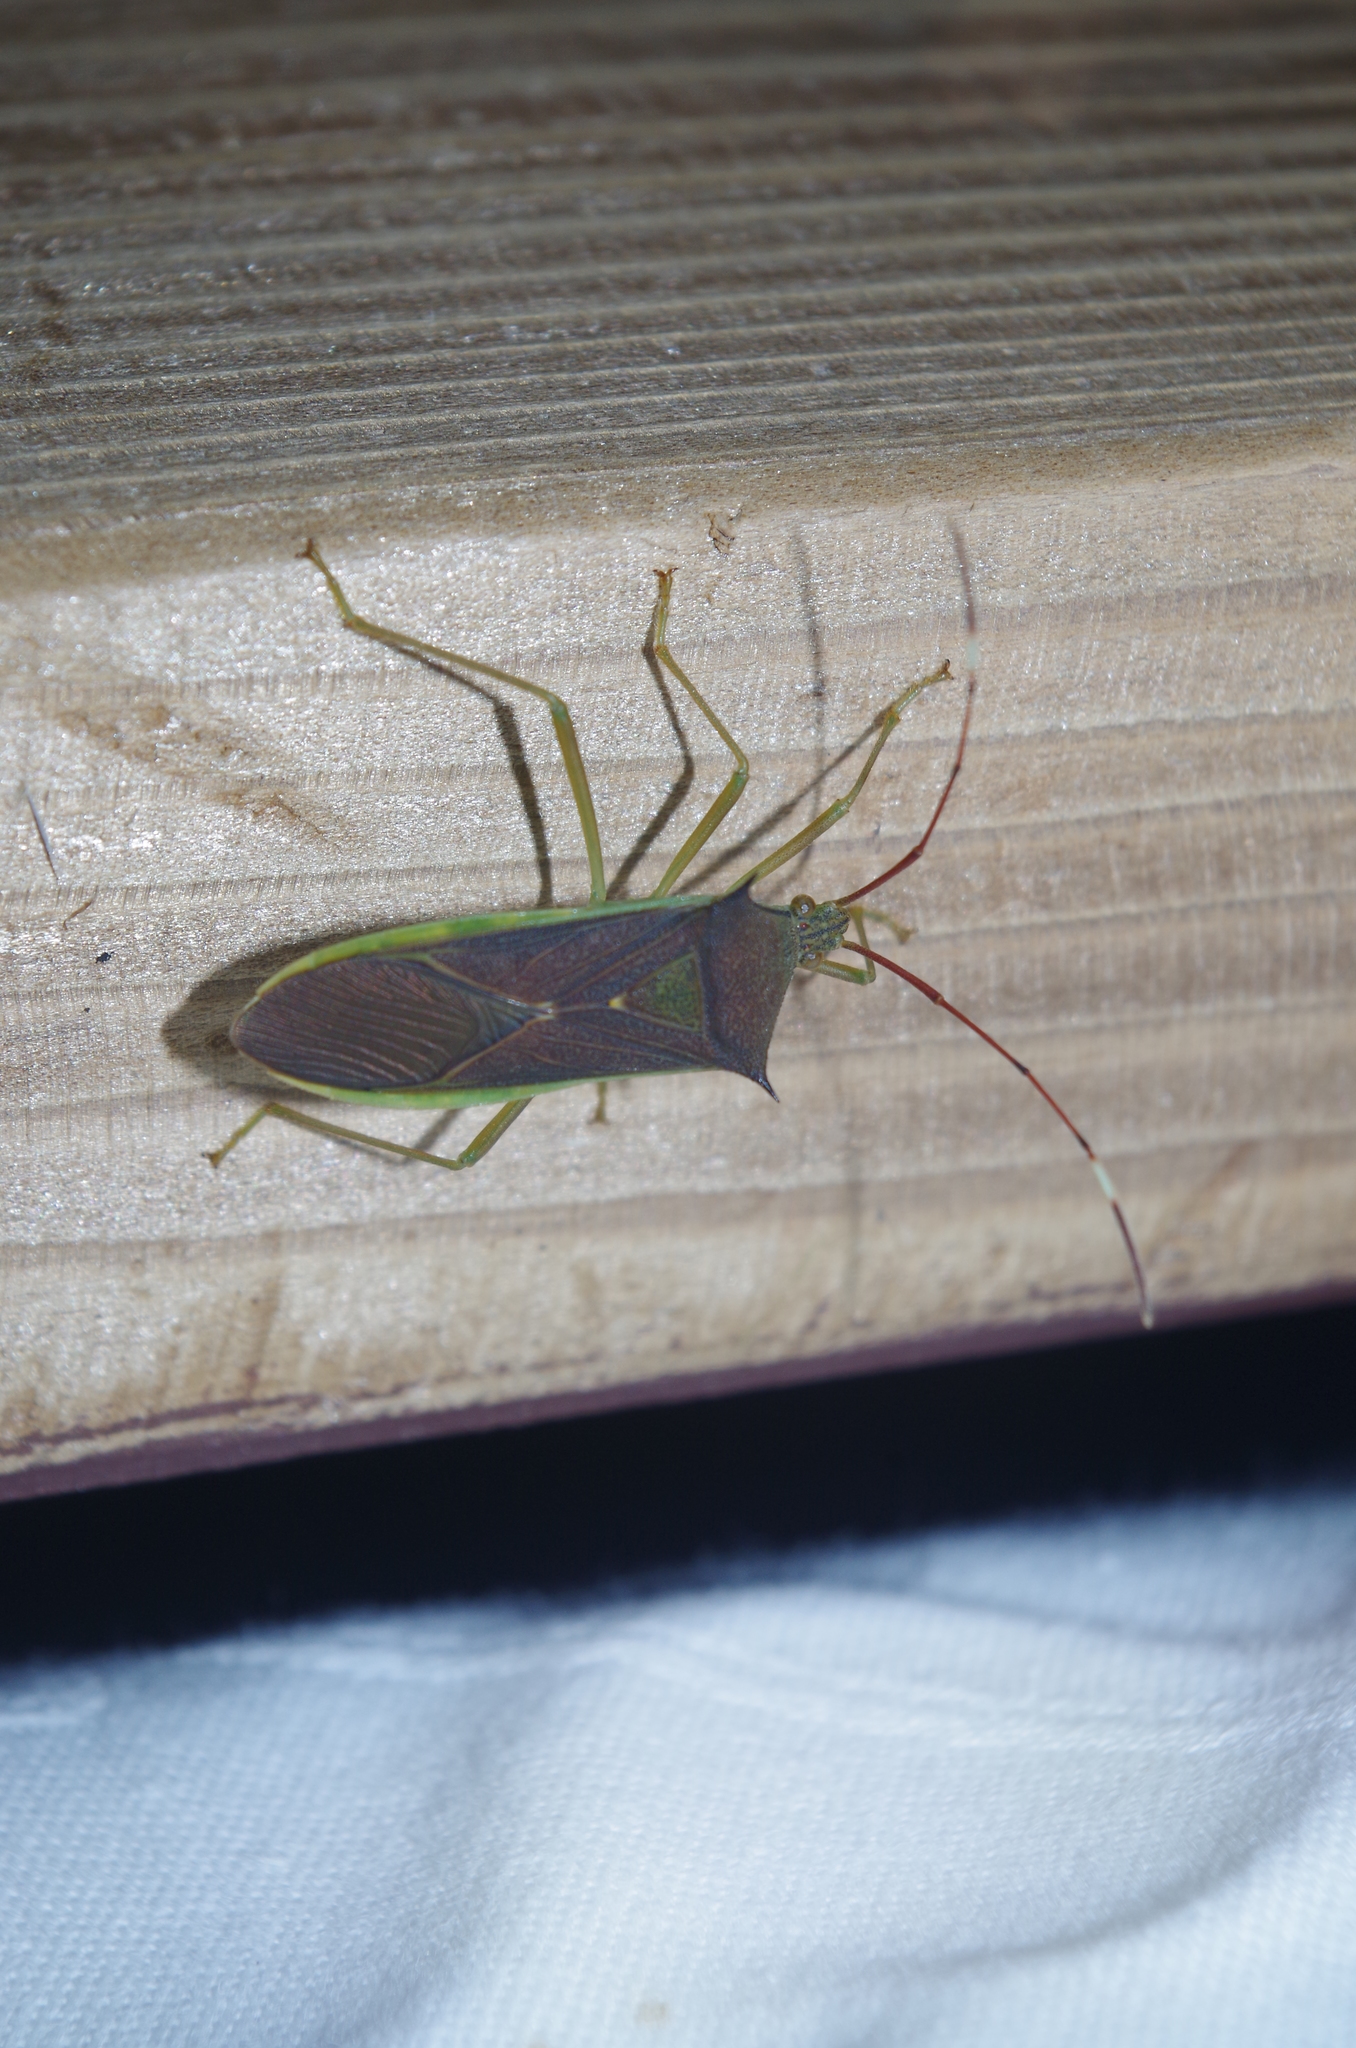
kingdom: Animalia
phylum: Arthropoda
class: Insecta
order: Hemiptera
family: Coreidae
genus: Paradasynus
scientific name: Paradasynus spinosus
